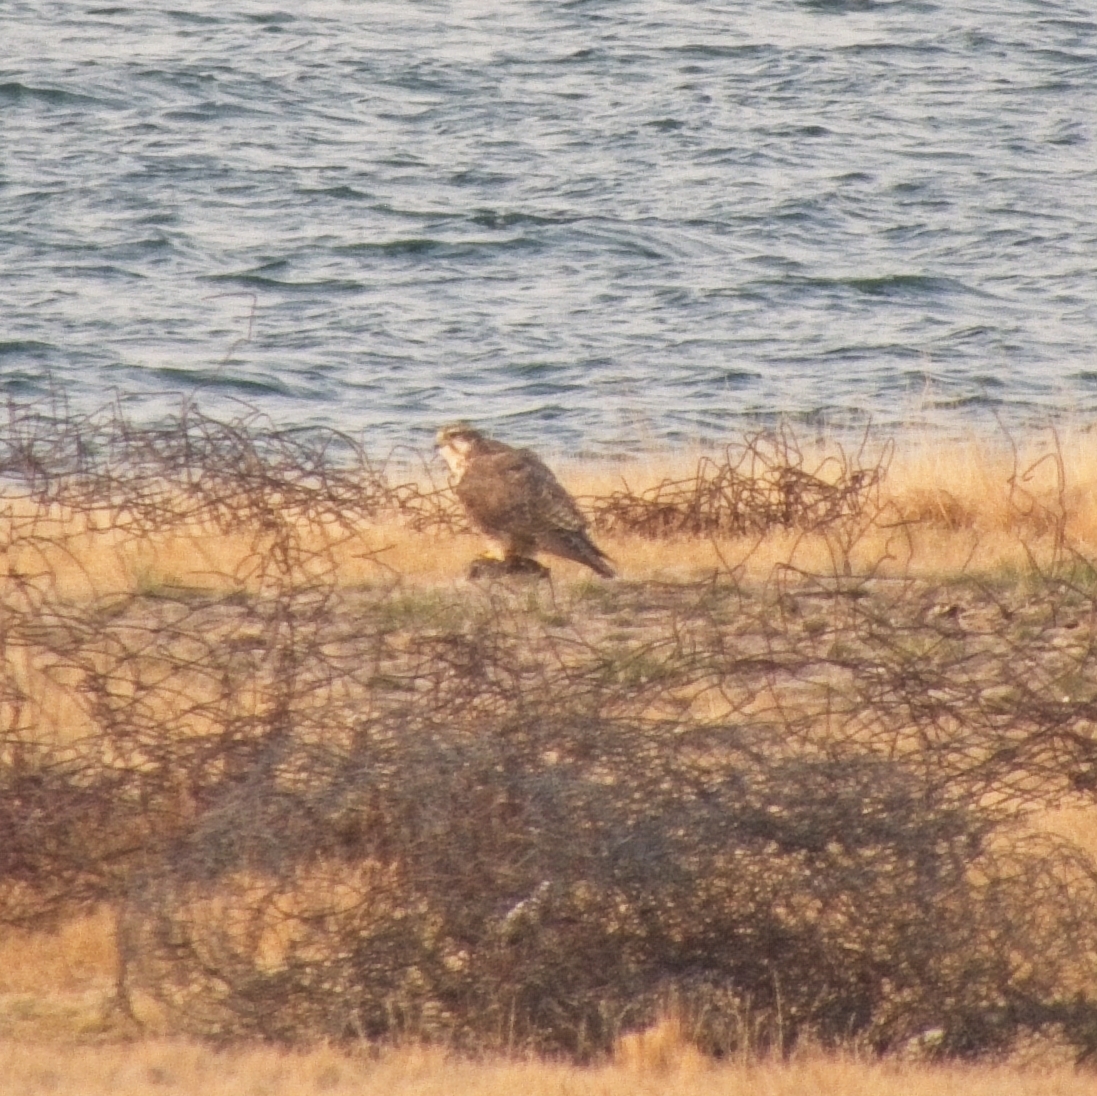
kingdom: Animalia
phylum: Chordata
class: Aves
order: Falconiformes
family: Falconidae
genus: Falco
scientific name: Falco cherrug
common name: Saker falcon
